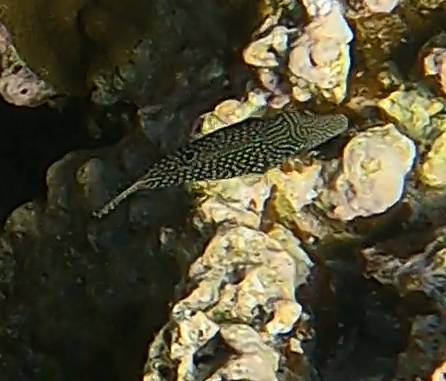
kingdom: Animalia
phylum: Chordata
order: Tetraodontiformes
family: Tetraodontidae
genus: Canthigaster
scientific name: Canthigaster margaritata
